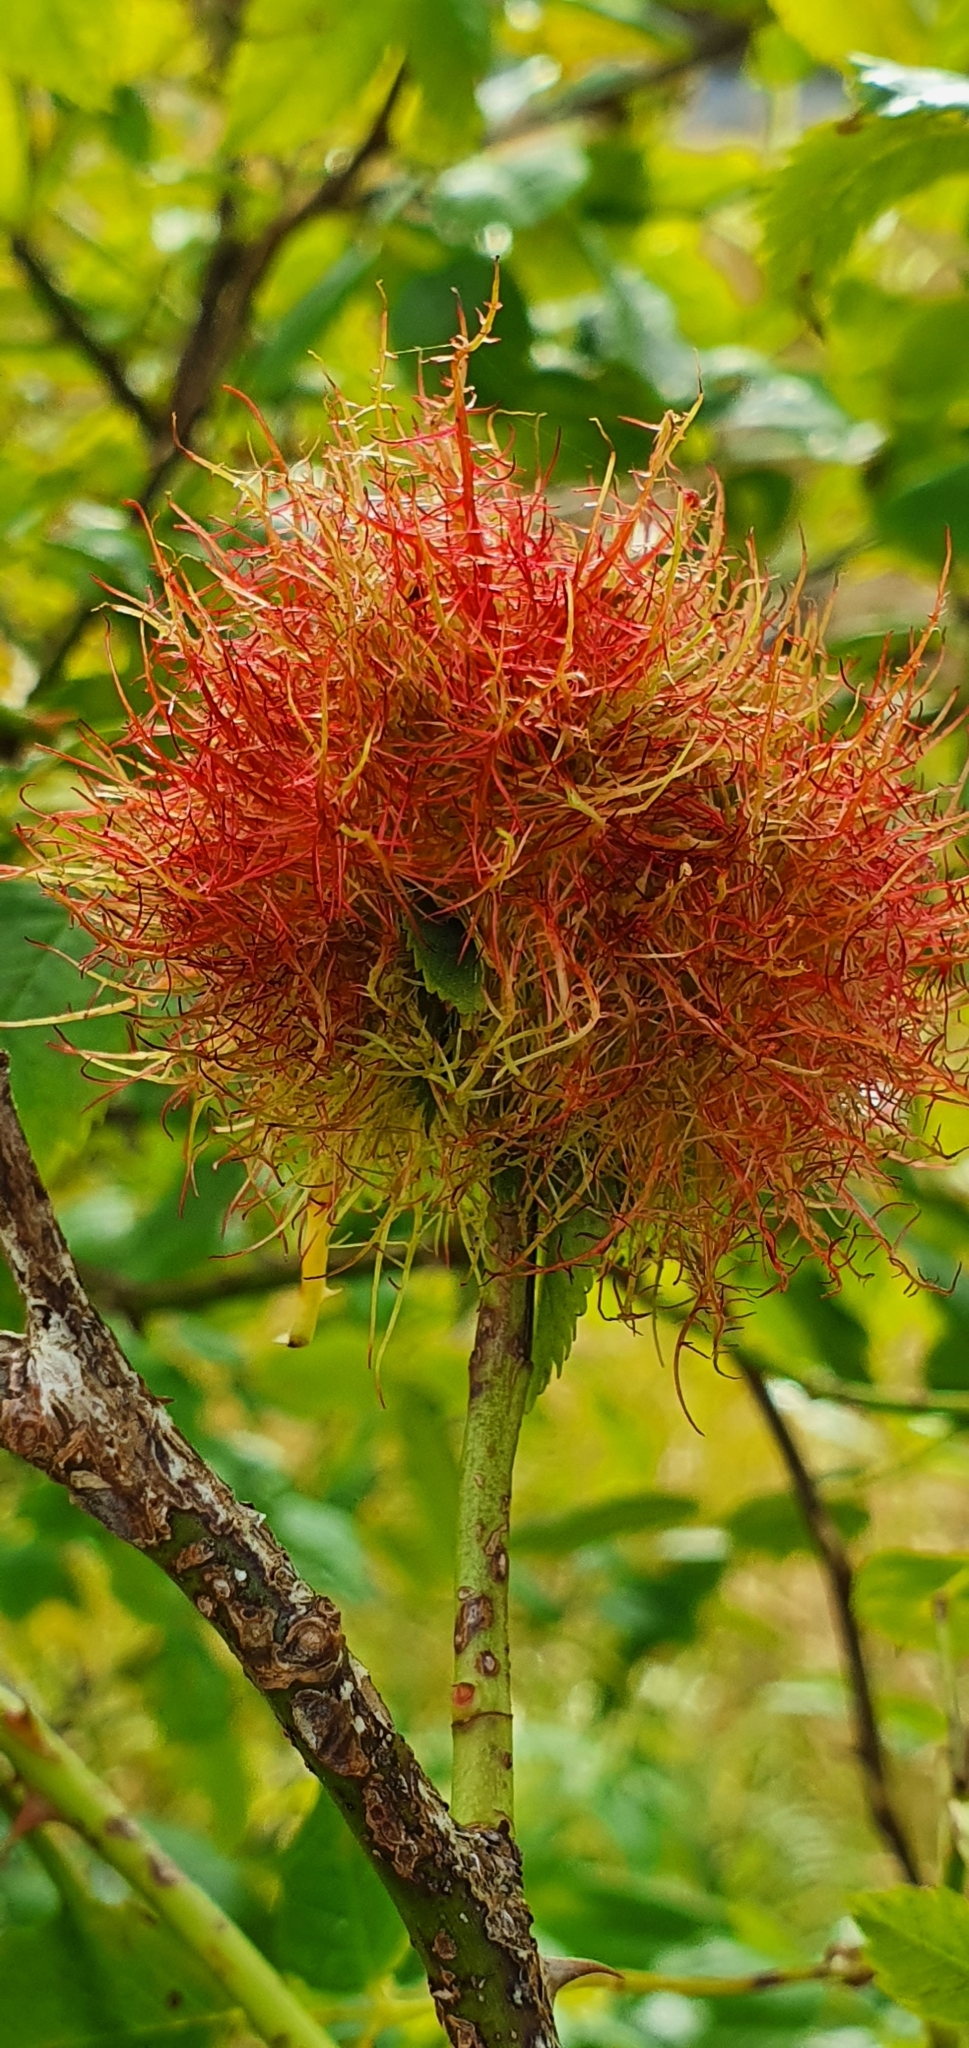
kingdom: Animalia
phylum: Arthropoda
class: Insecta
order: Hymenoptera
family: Cynipidae
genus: Diplolepis
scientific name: Diplolepis rosae
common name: Bedeguar gall
